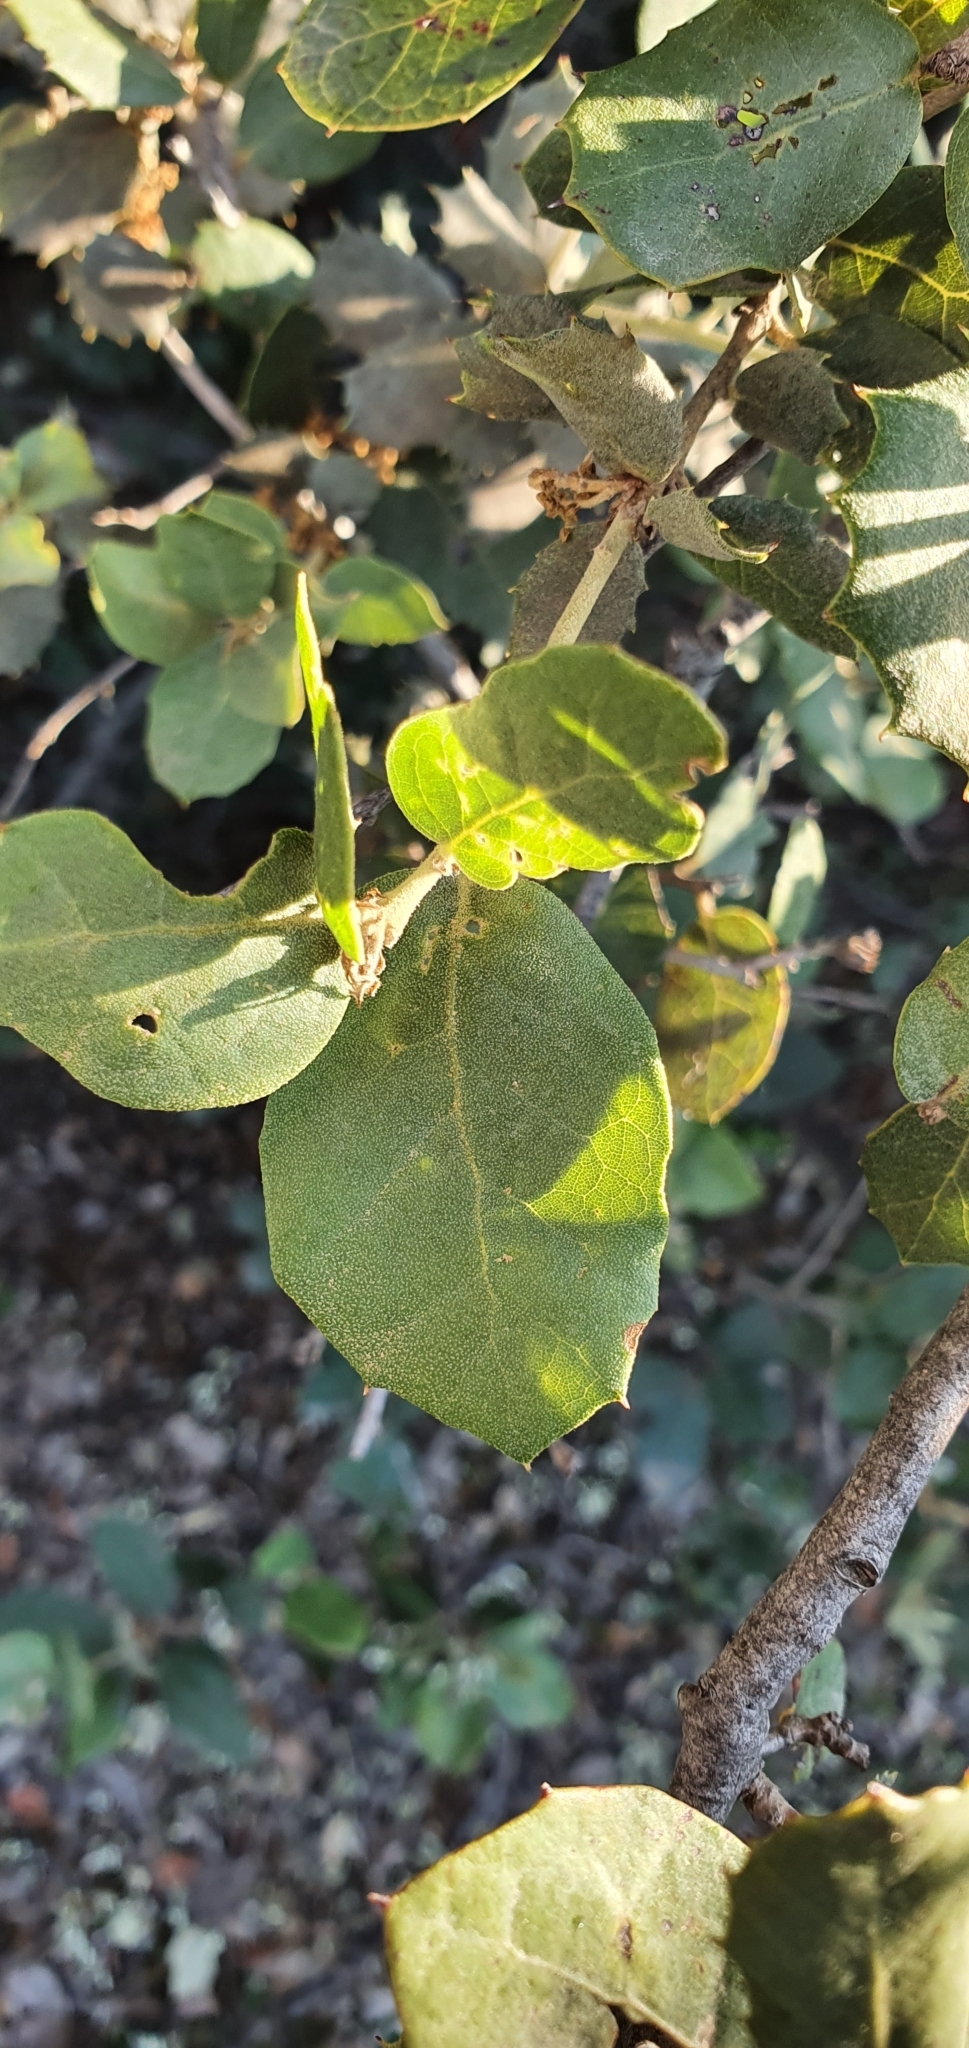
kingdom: Plantae
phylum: Tracheophyta
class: Magnoliopsida
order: Fagales
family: Fagaceae
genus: Quercus
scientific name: Quercus rotundifolia
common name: Holm oak
